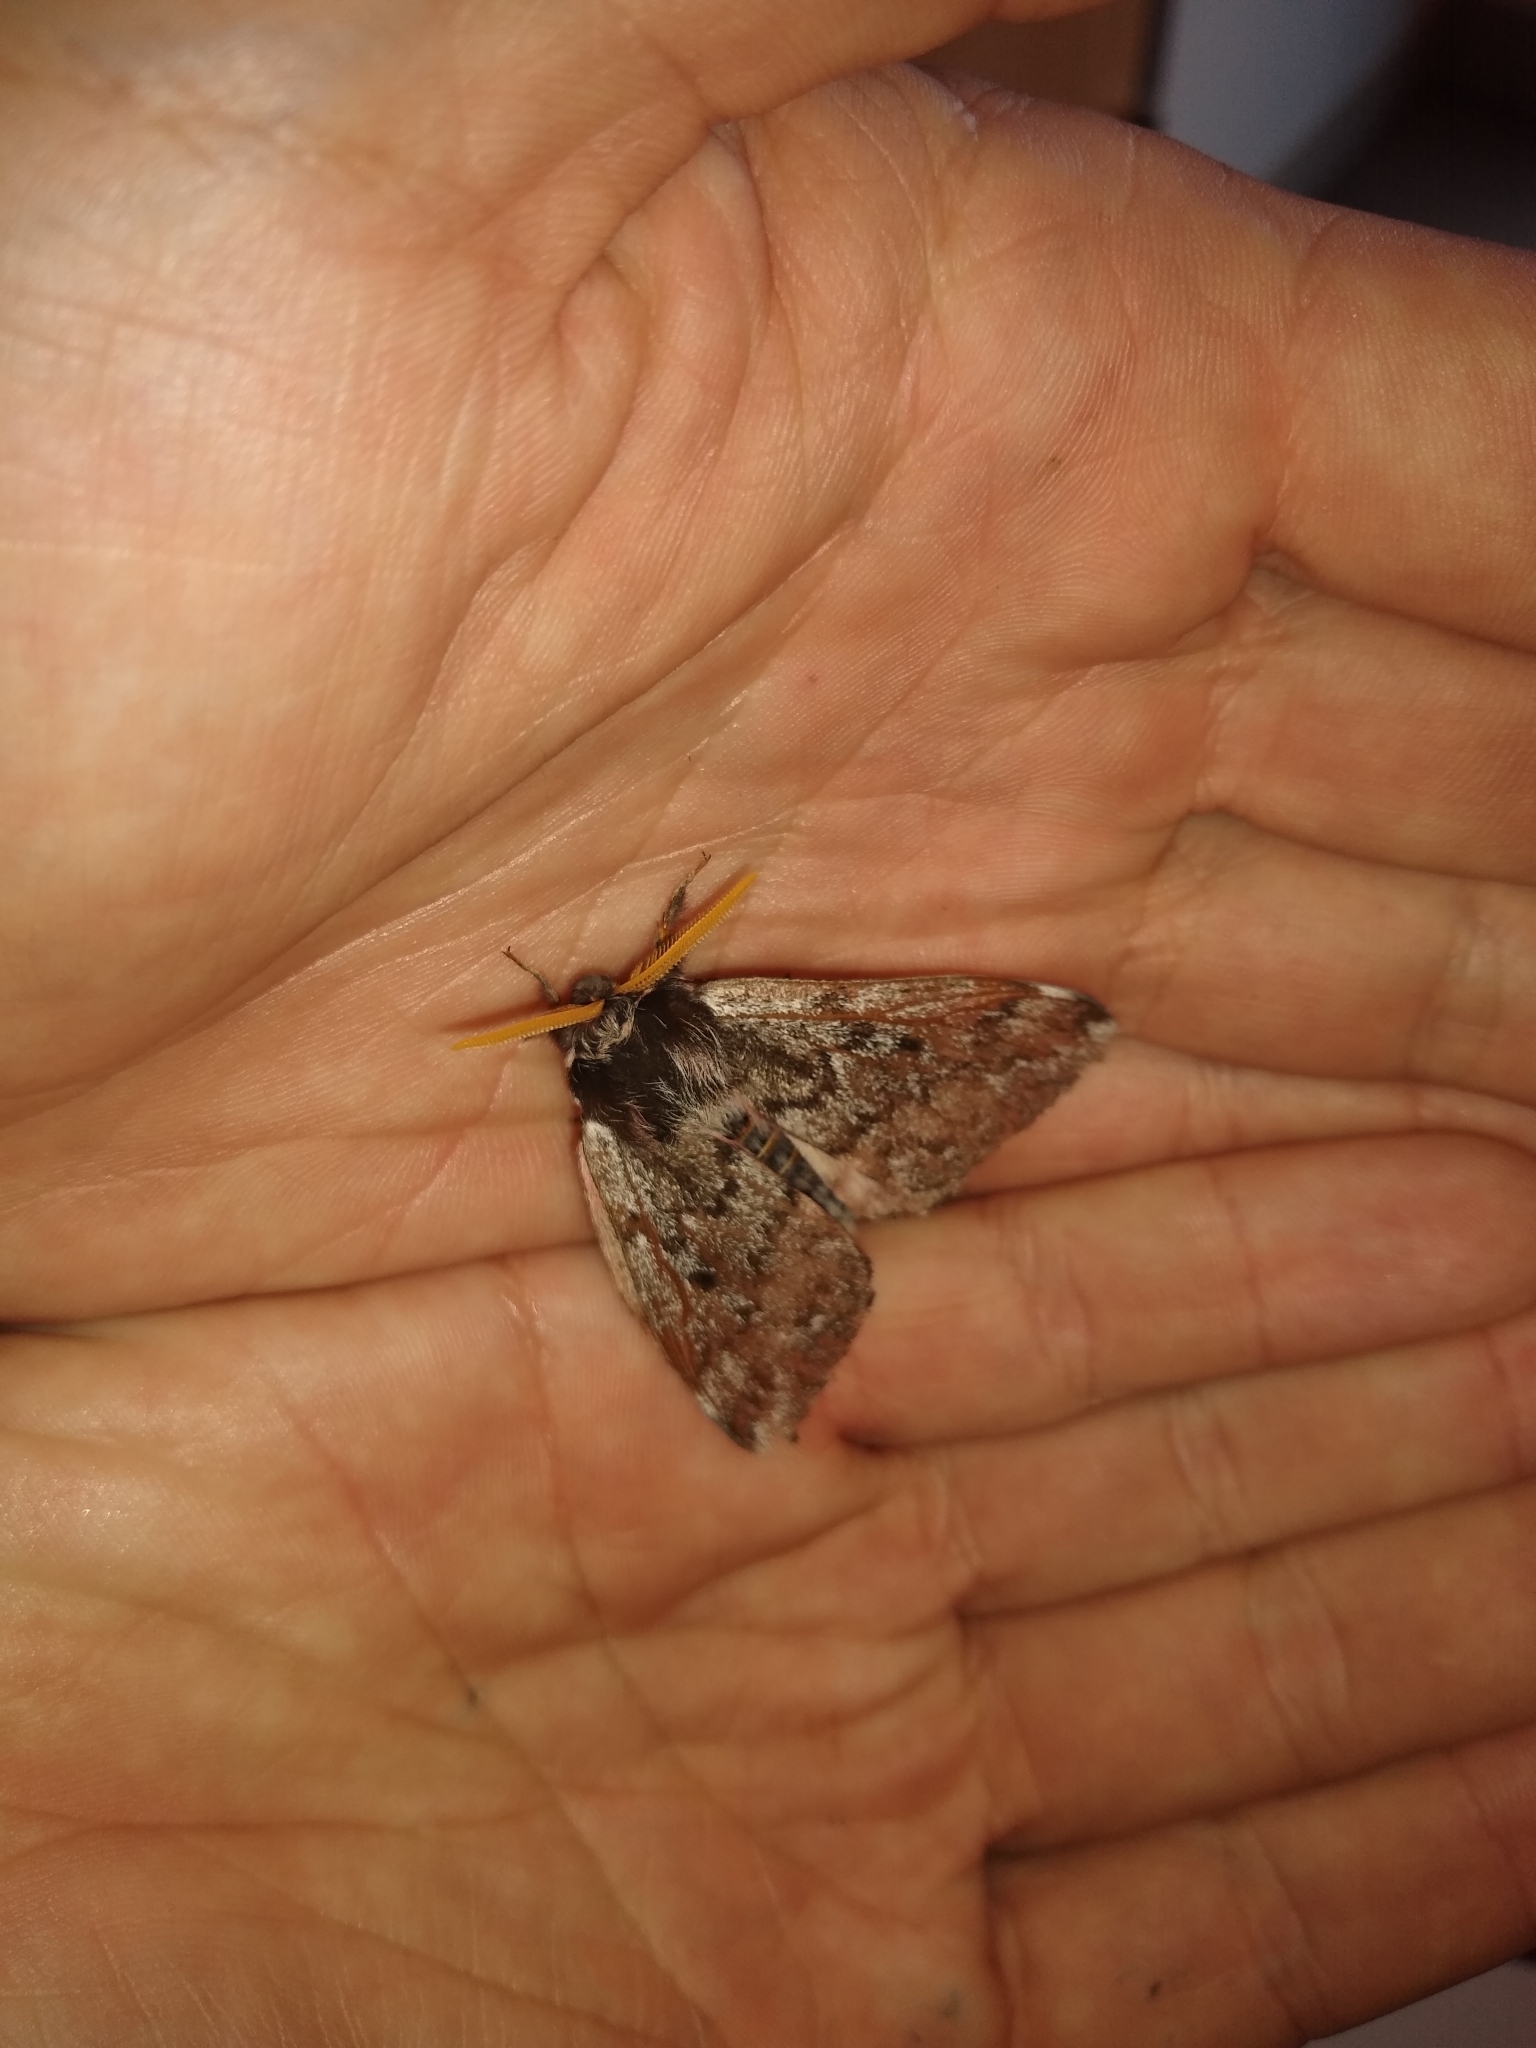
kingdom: Animalia
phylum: Arthropoda
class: Insecta
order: Lepidoptera
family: Saturniidae
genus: Coloradia
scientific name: Coloradia pandora
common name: Pandora pinemoth
